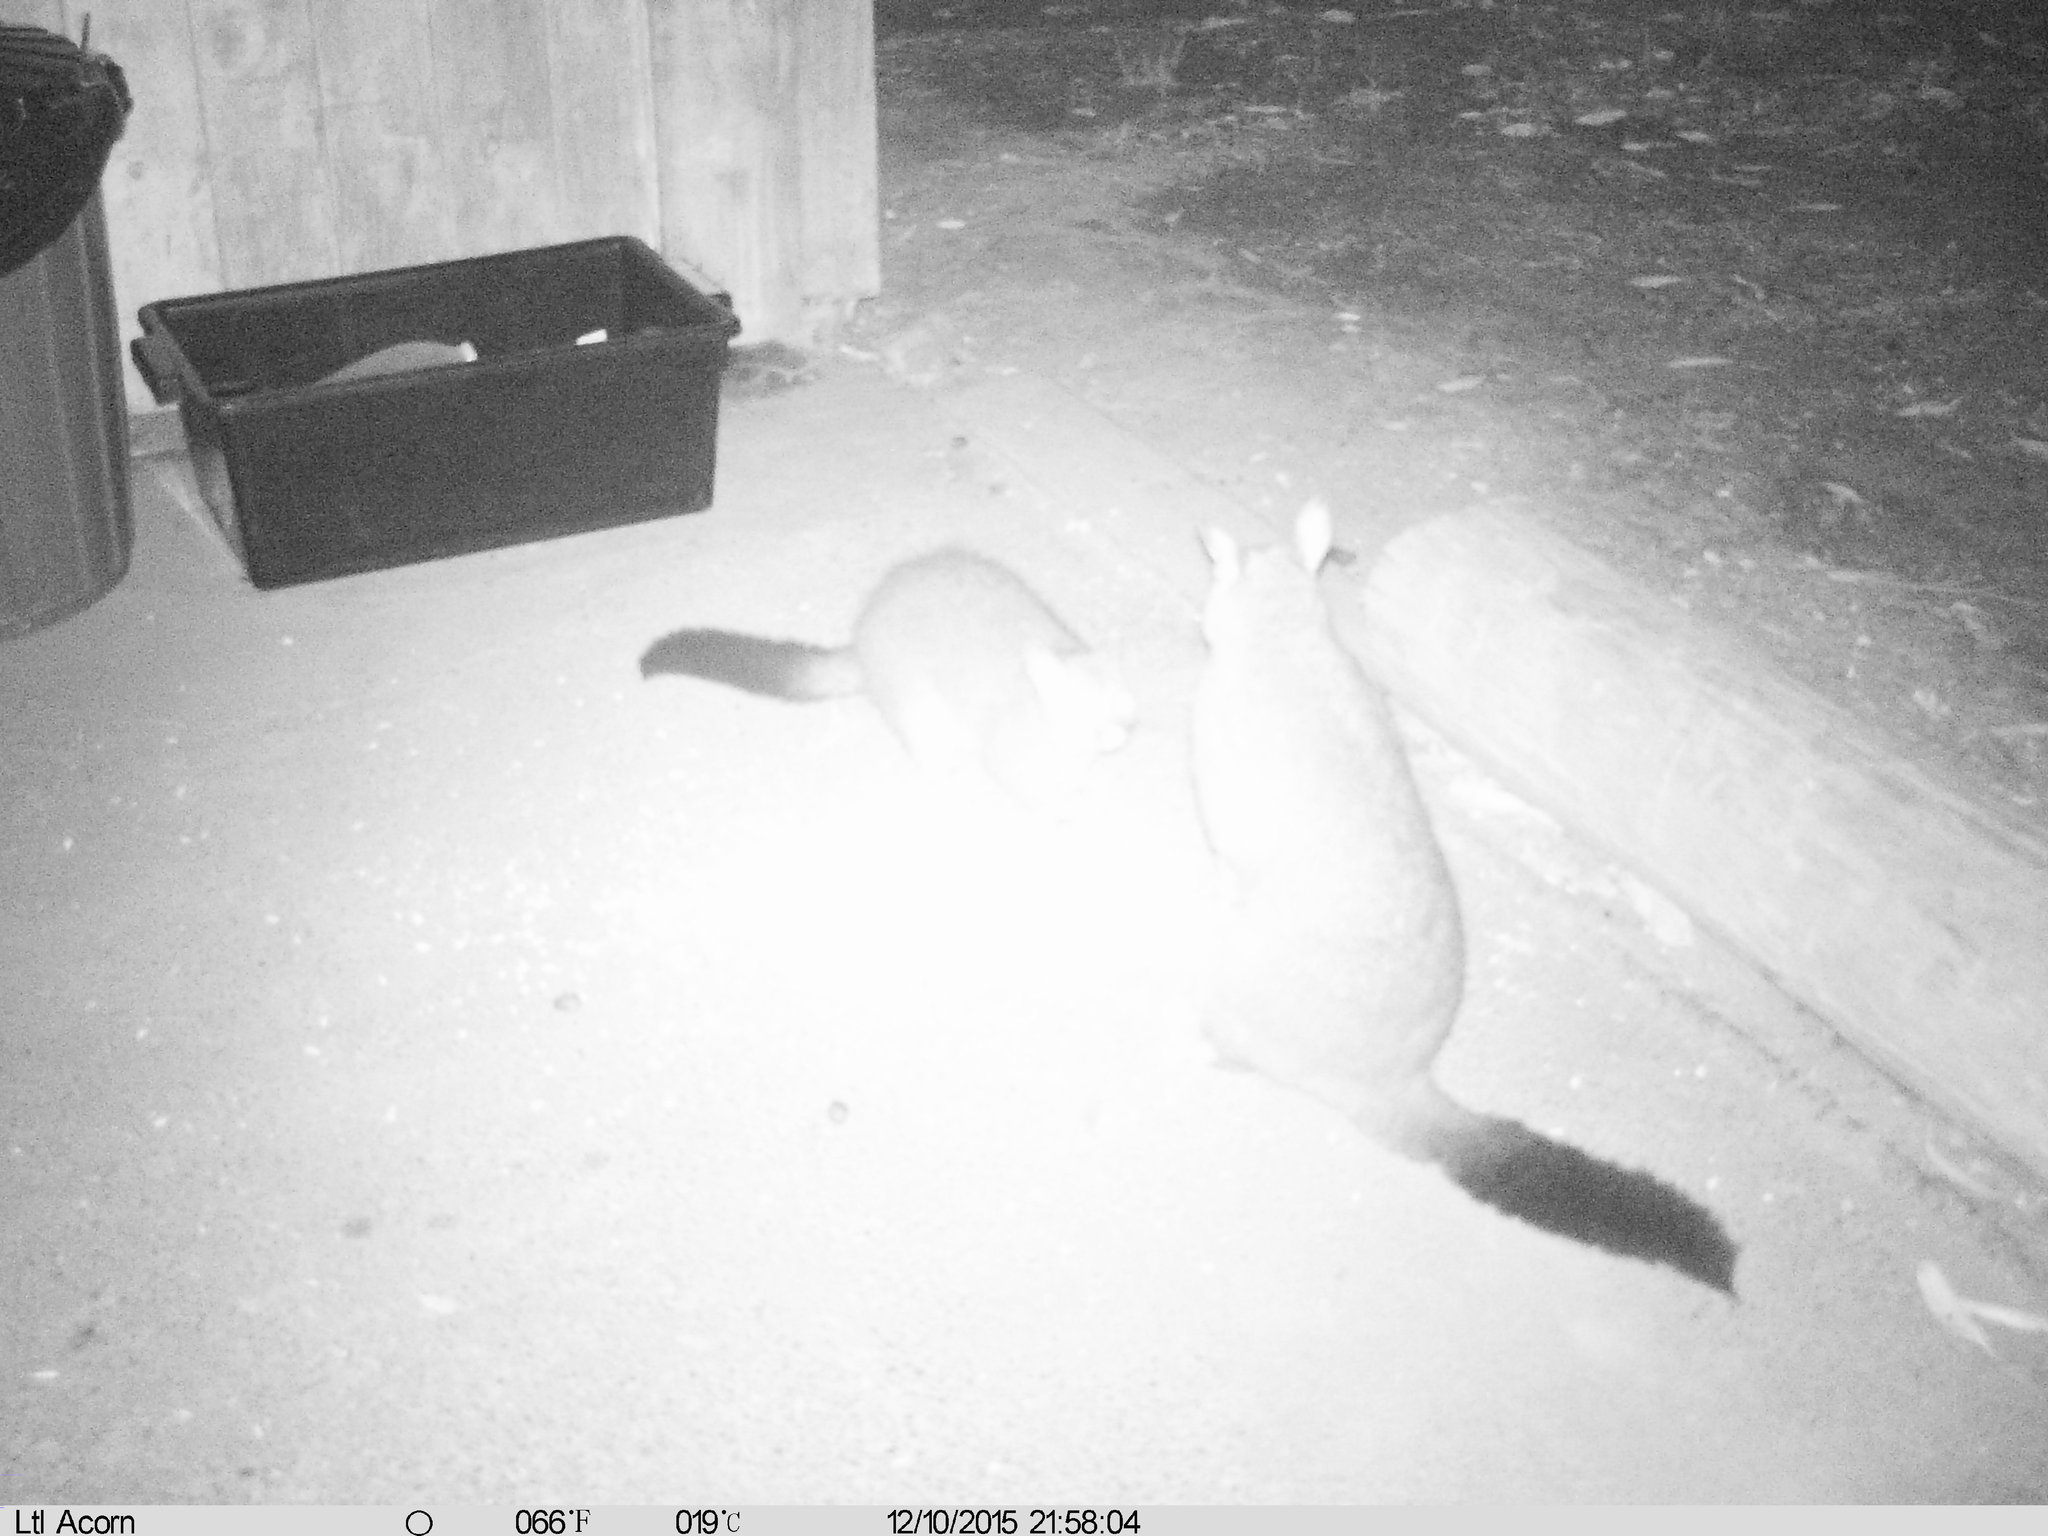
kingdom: Animalia
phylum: Chordata
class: Mammalia
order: Diprotodontia
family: Phalangeridae
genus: Trichosurus
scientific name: Trichosurus vulpecula
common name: Common brushtail
